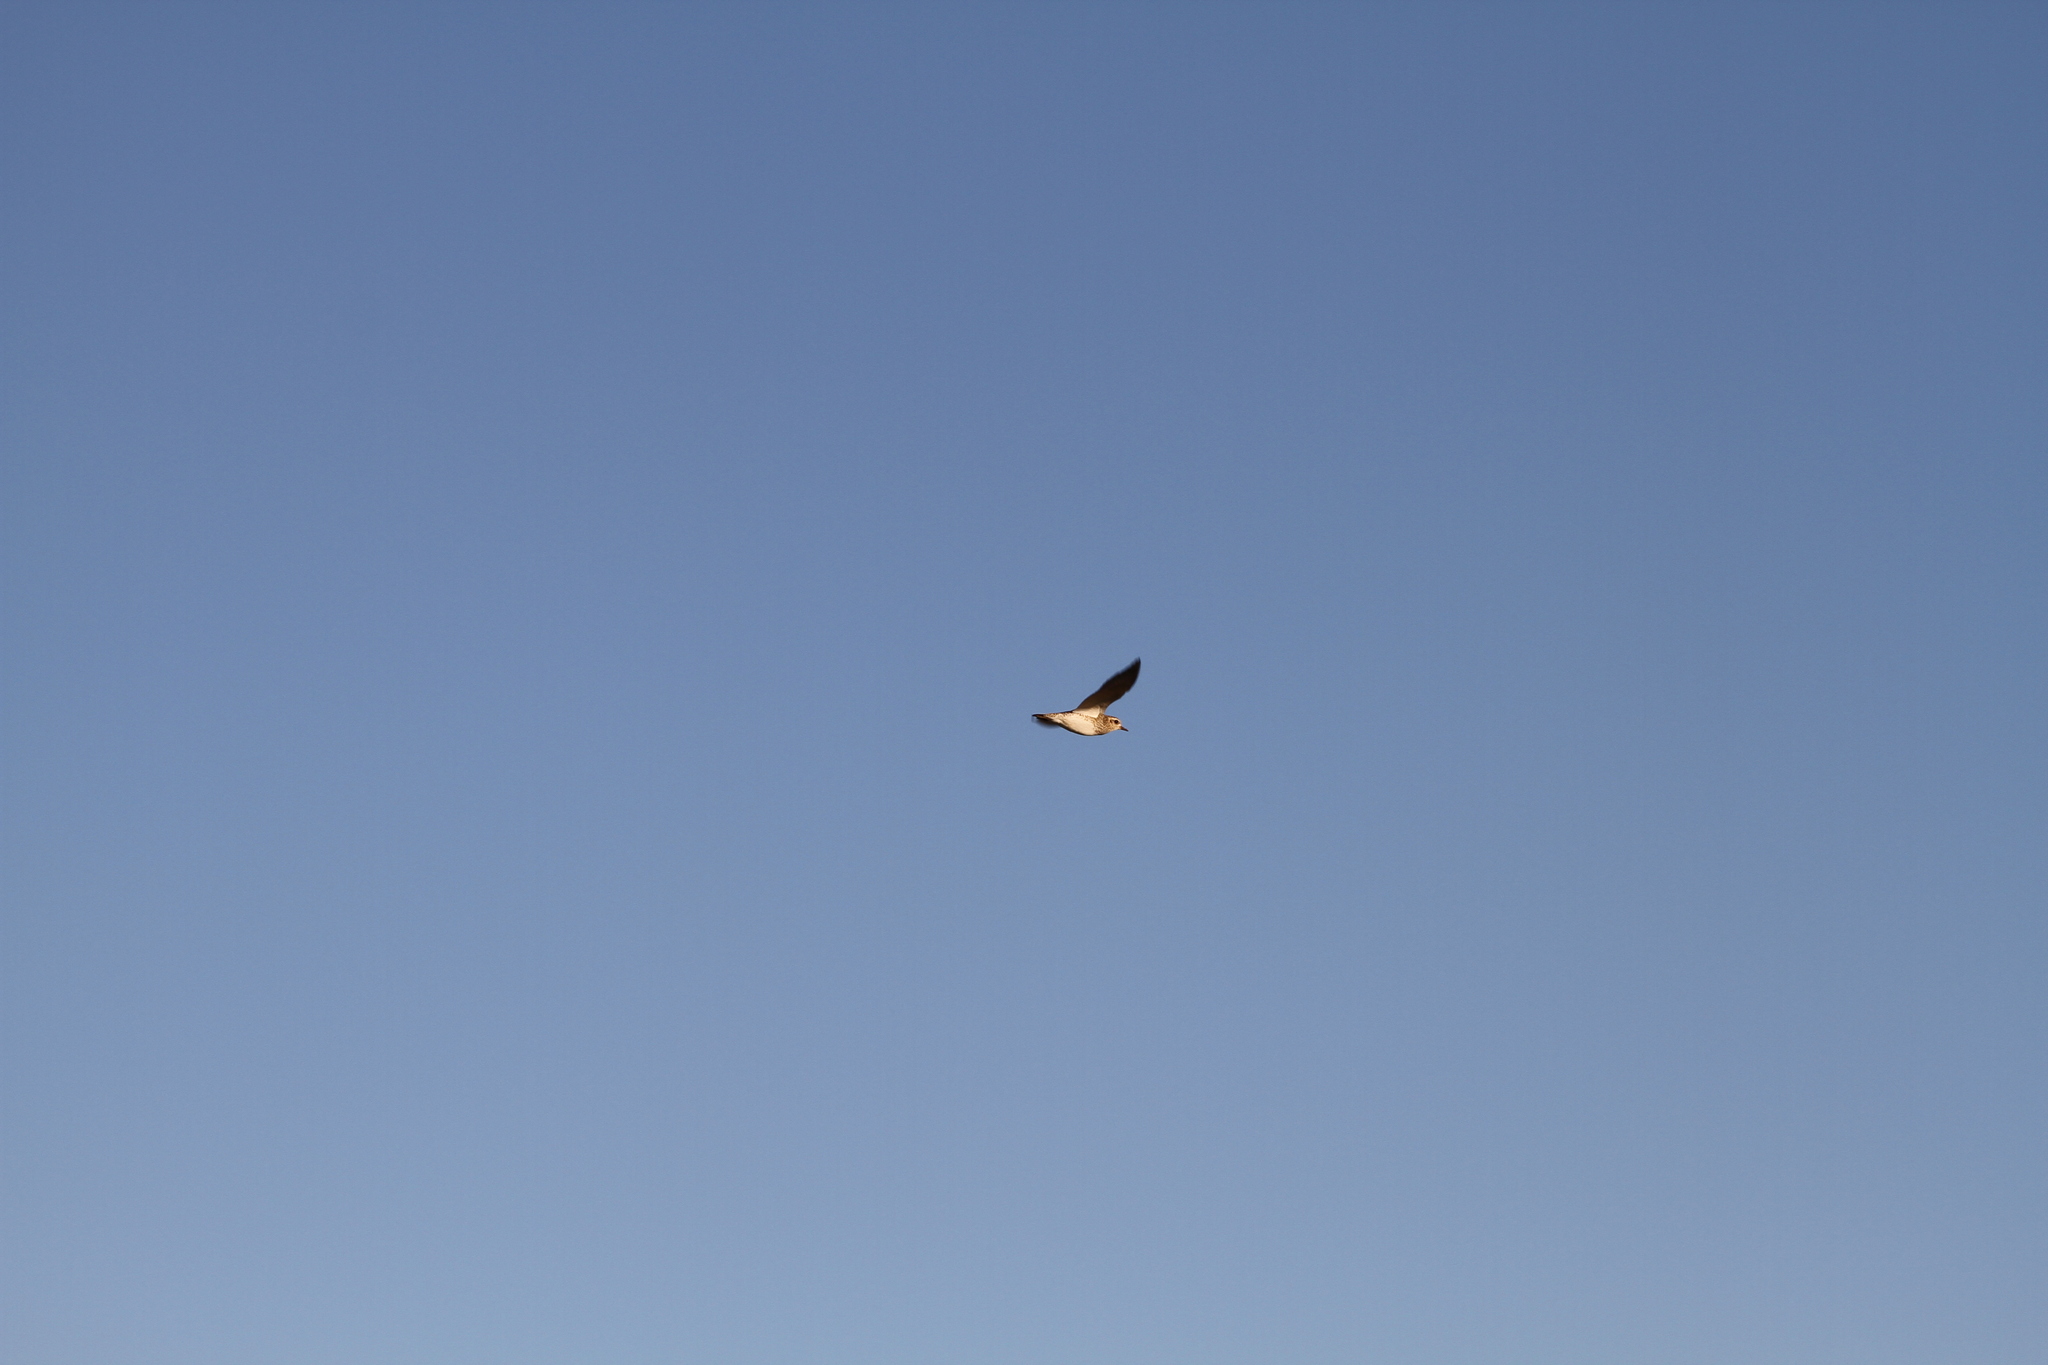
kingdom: Animalia
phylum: Chordata
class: Aves
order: Charadriiformes
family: Charadriidae
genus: Pluvialis
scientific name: Pluvialis apricaria
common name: European golden plover
